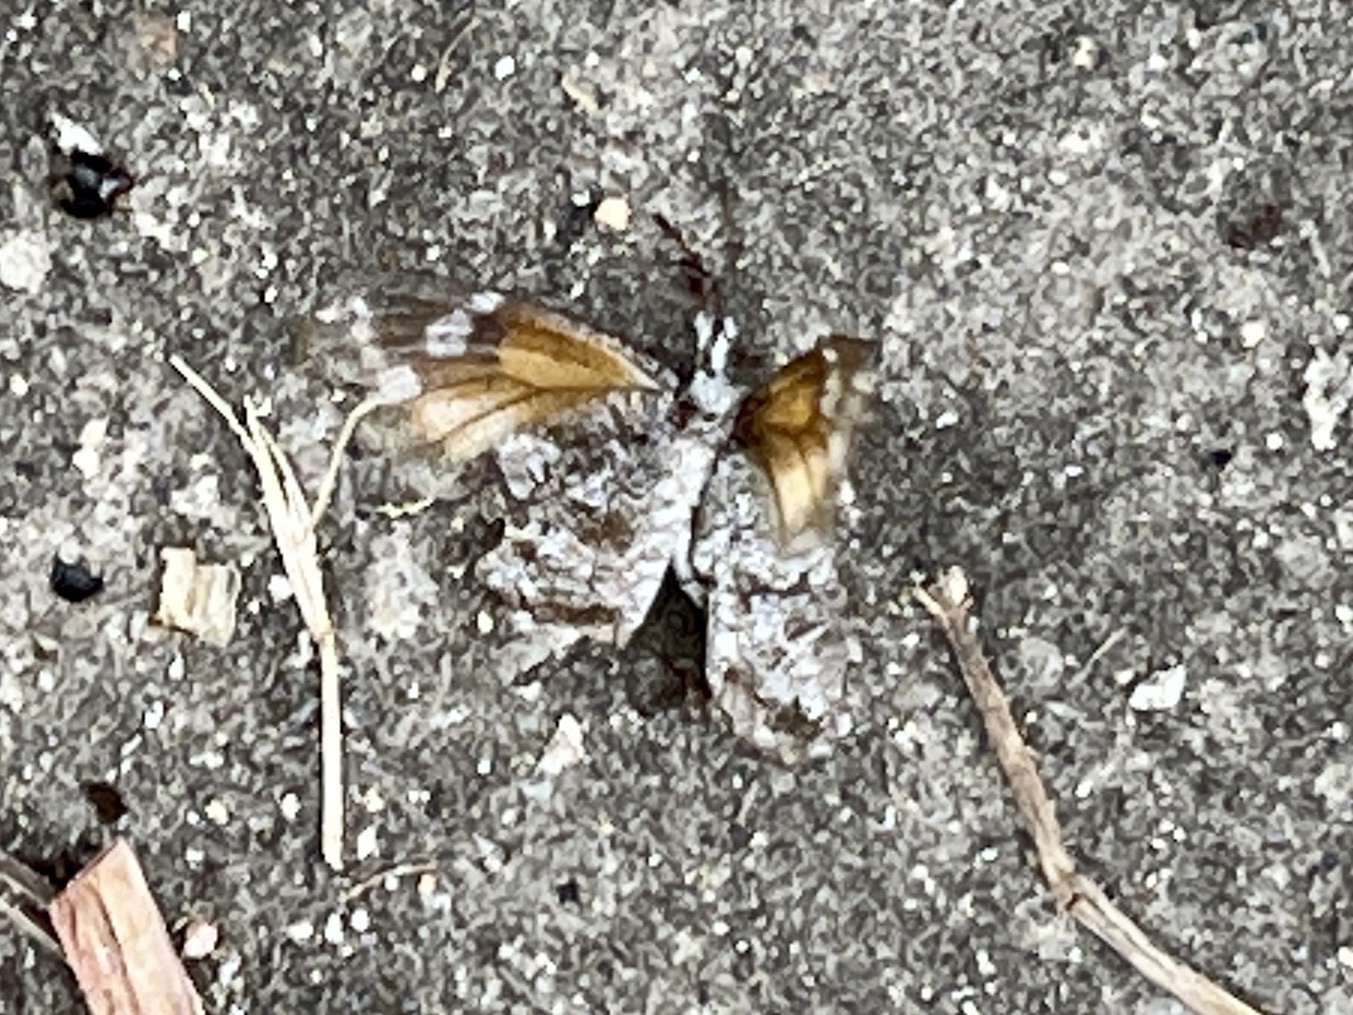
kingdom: Animalia
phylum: Arthropoda
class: Insecta
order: Lepidoptera
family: Nymphalidae
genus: Libytheana
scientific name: Libytheana carinenta
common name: American snout
